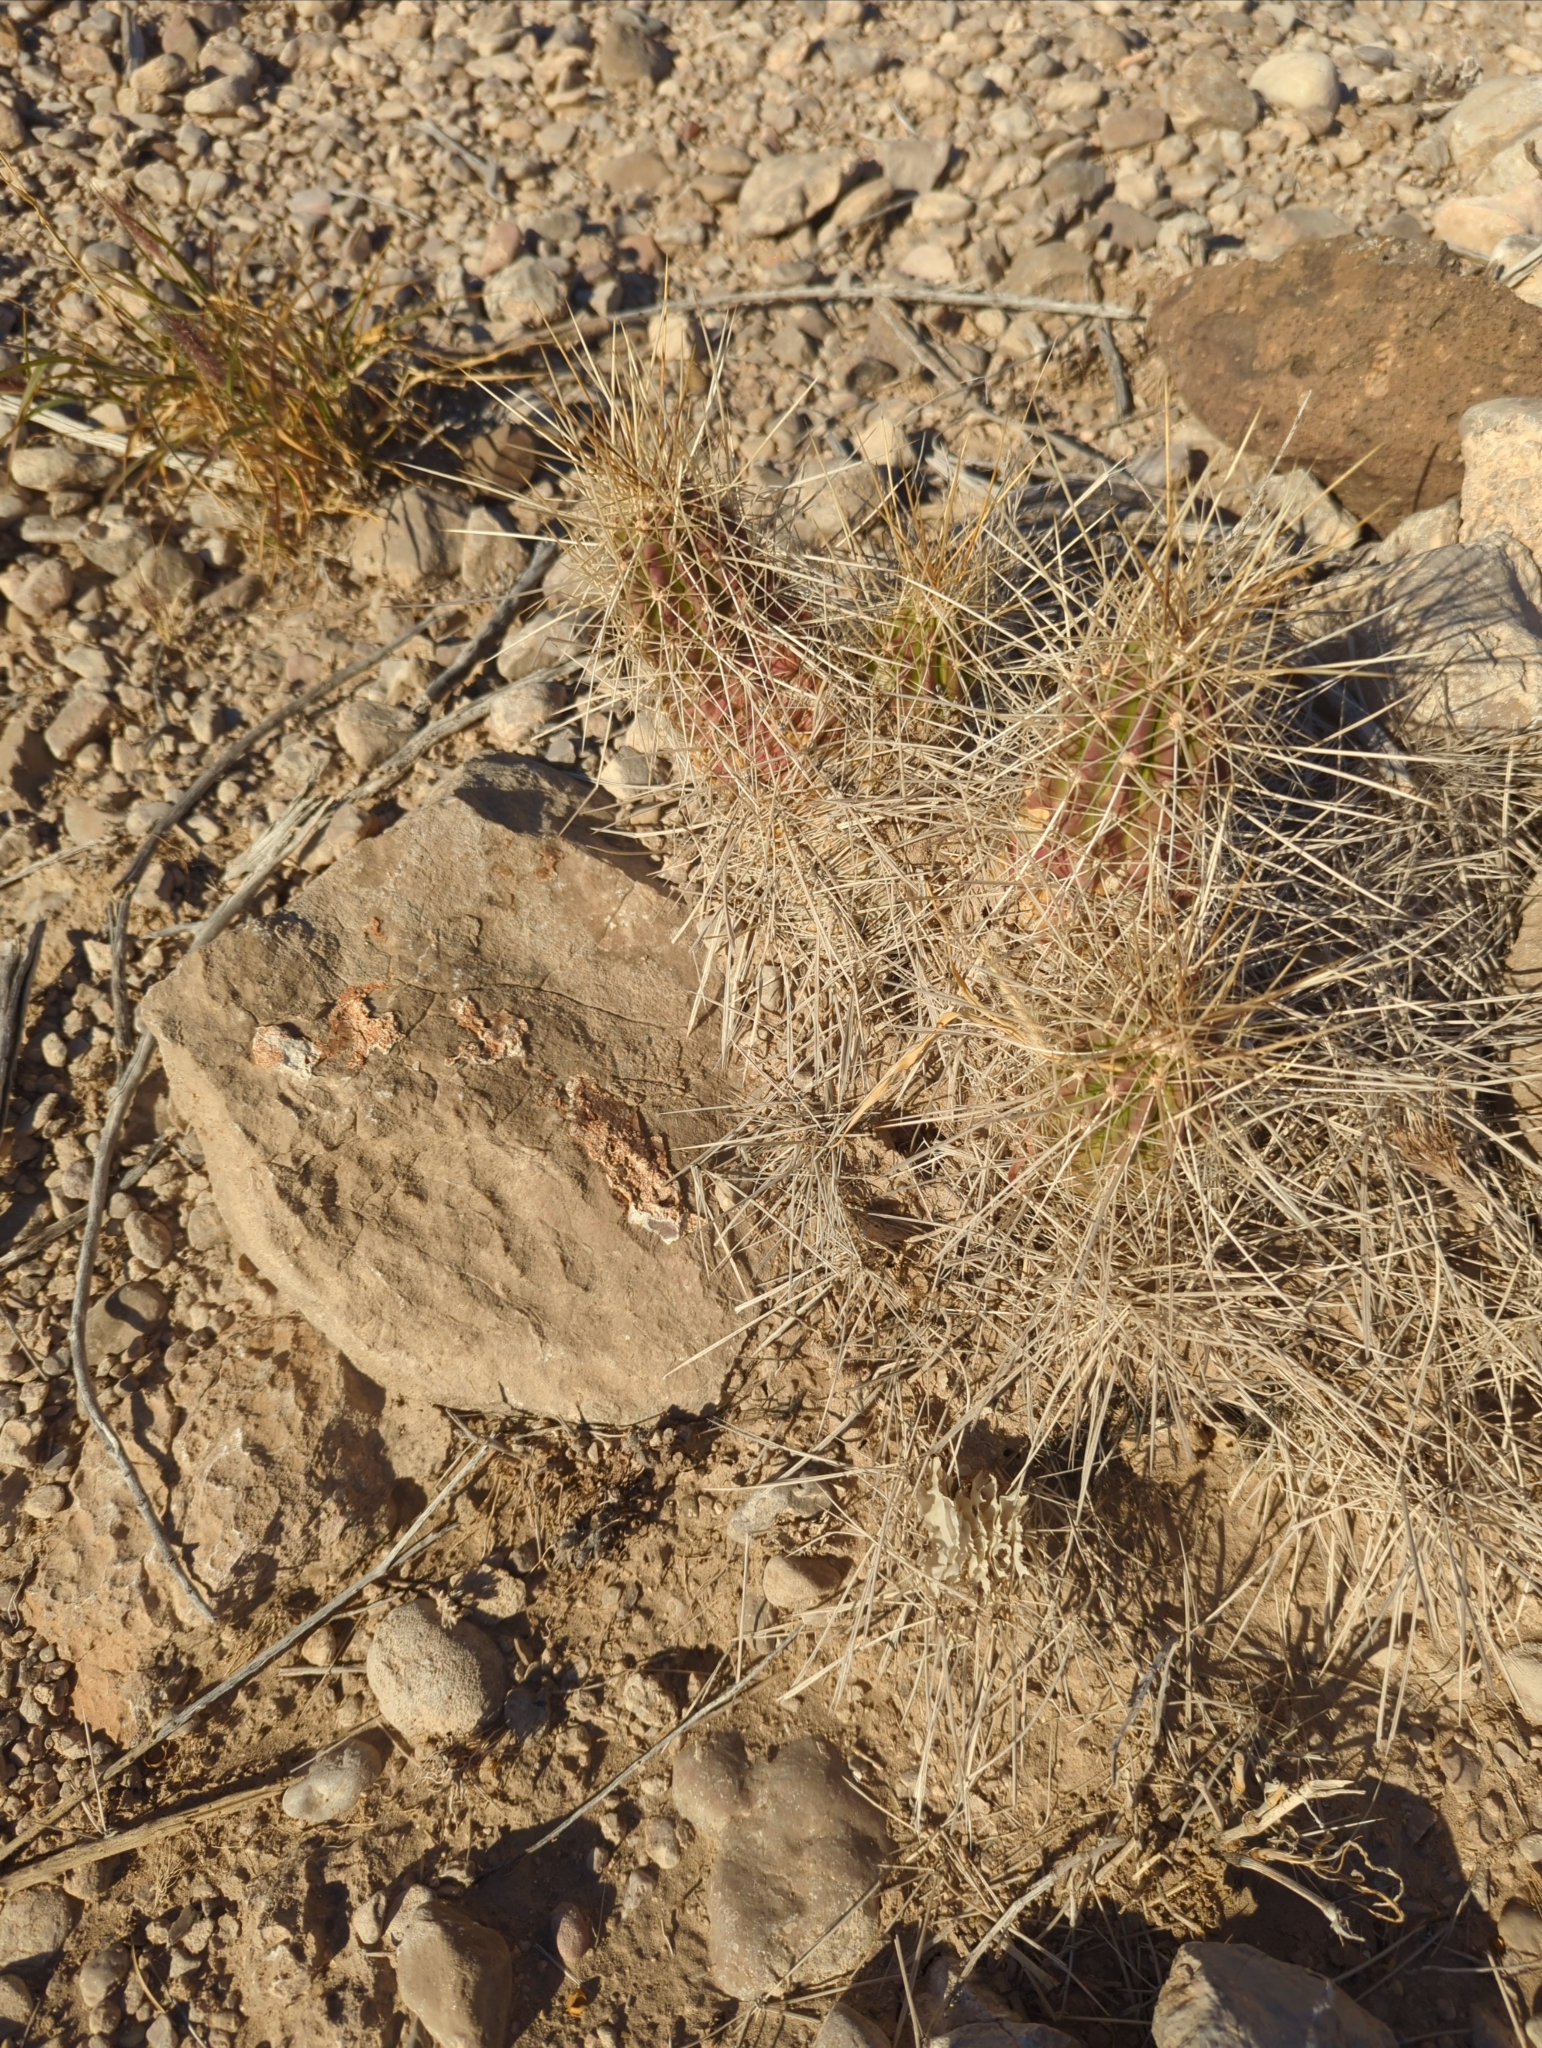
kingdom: Plantae
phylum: Tracheophyta
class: Magnoliopsida
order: Caryophyllales
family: Cactaceae
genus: Echinocereus
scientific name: Echinocereus stramineus
